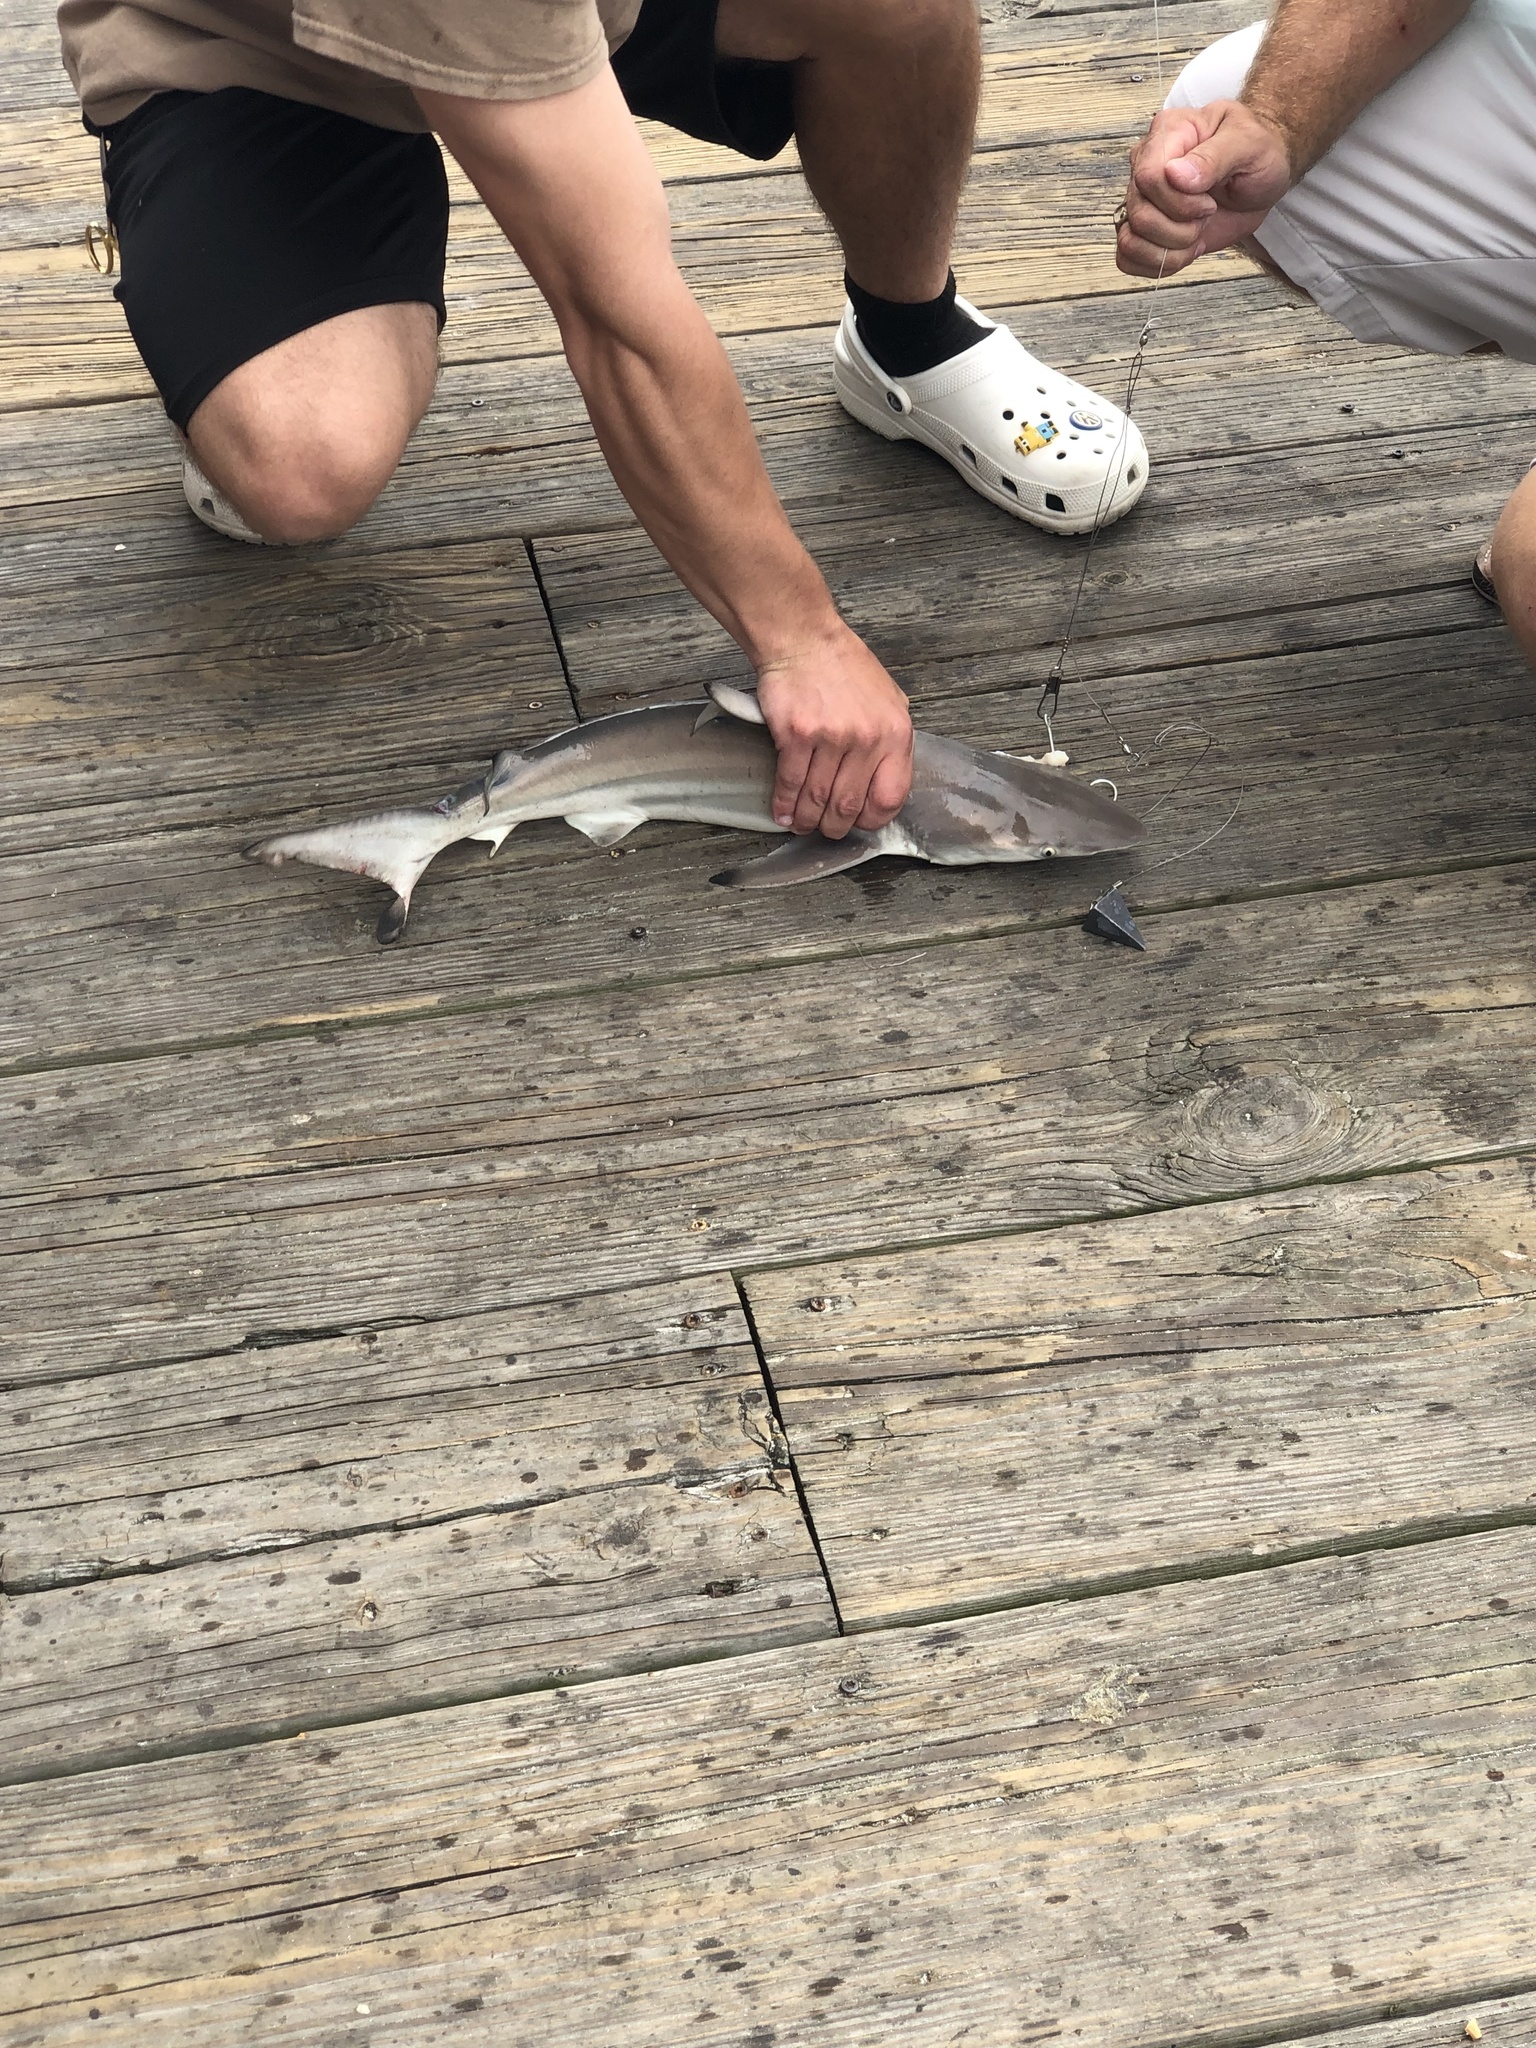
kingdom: Animalia
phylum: Chordata
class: Elasmobranchii
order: Carcharhiniformes
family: Carcharhinidae
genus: Carcharhinus
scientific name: Carcharhinus limbatus
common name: Blacktip shark
